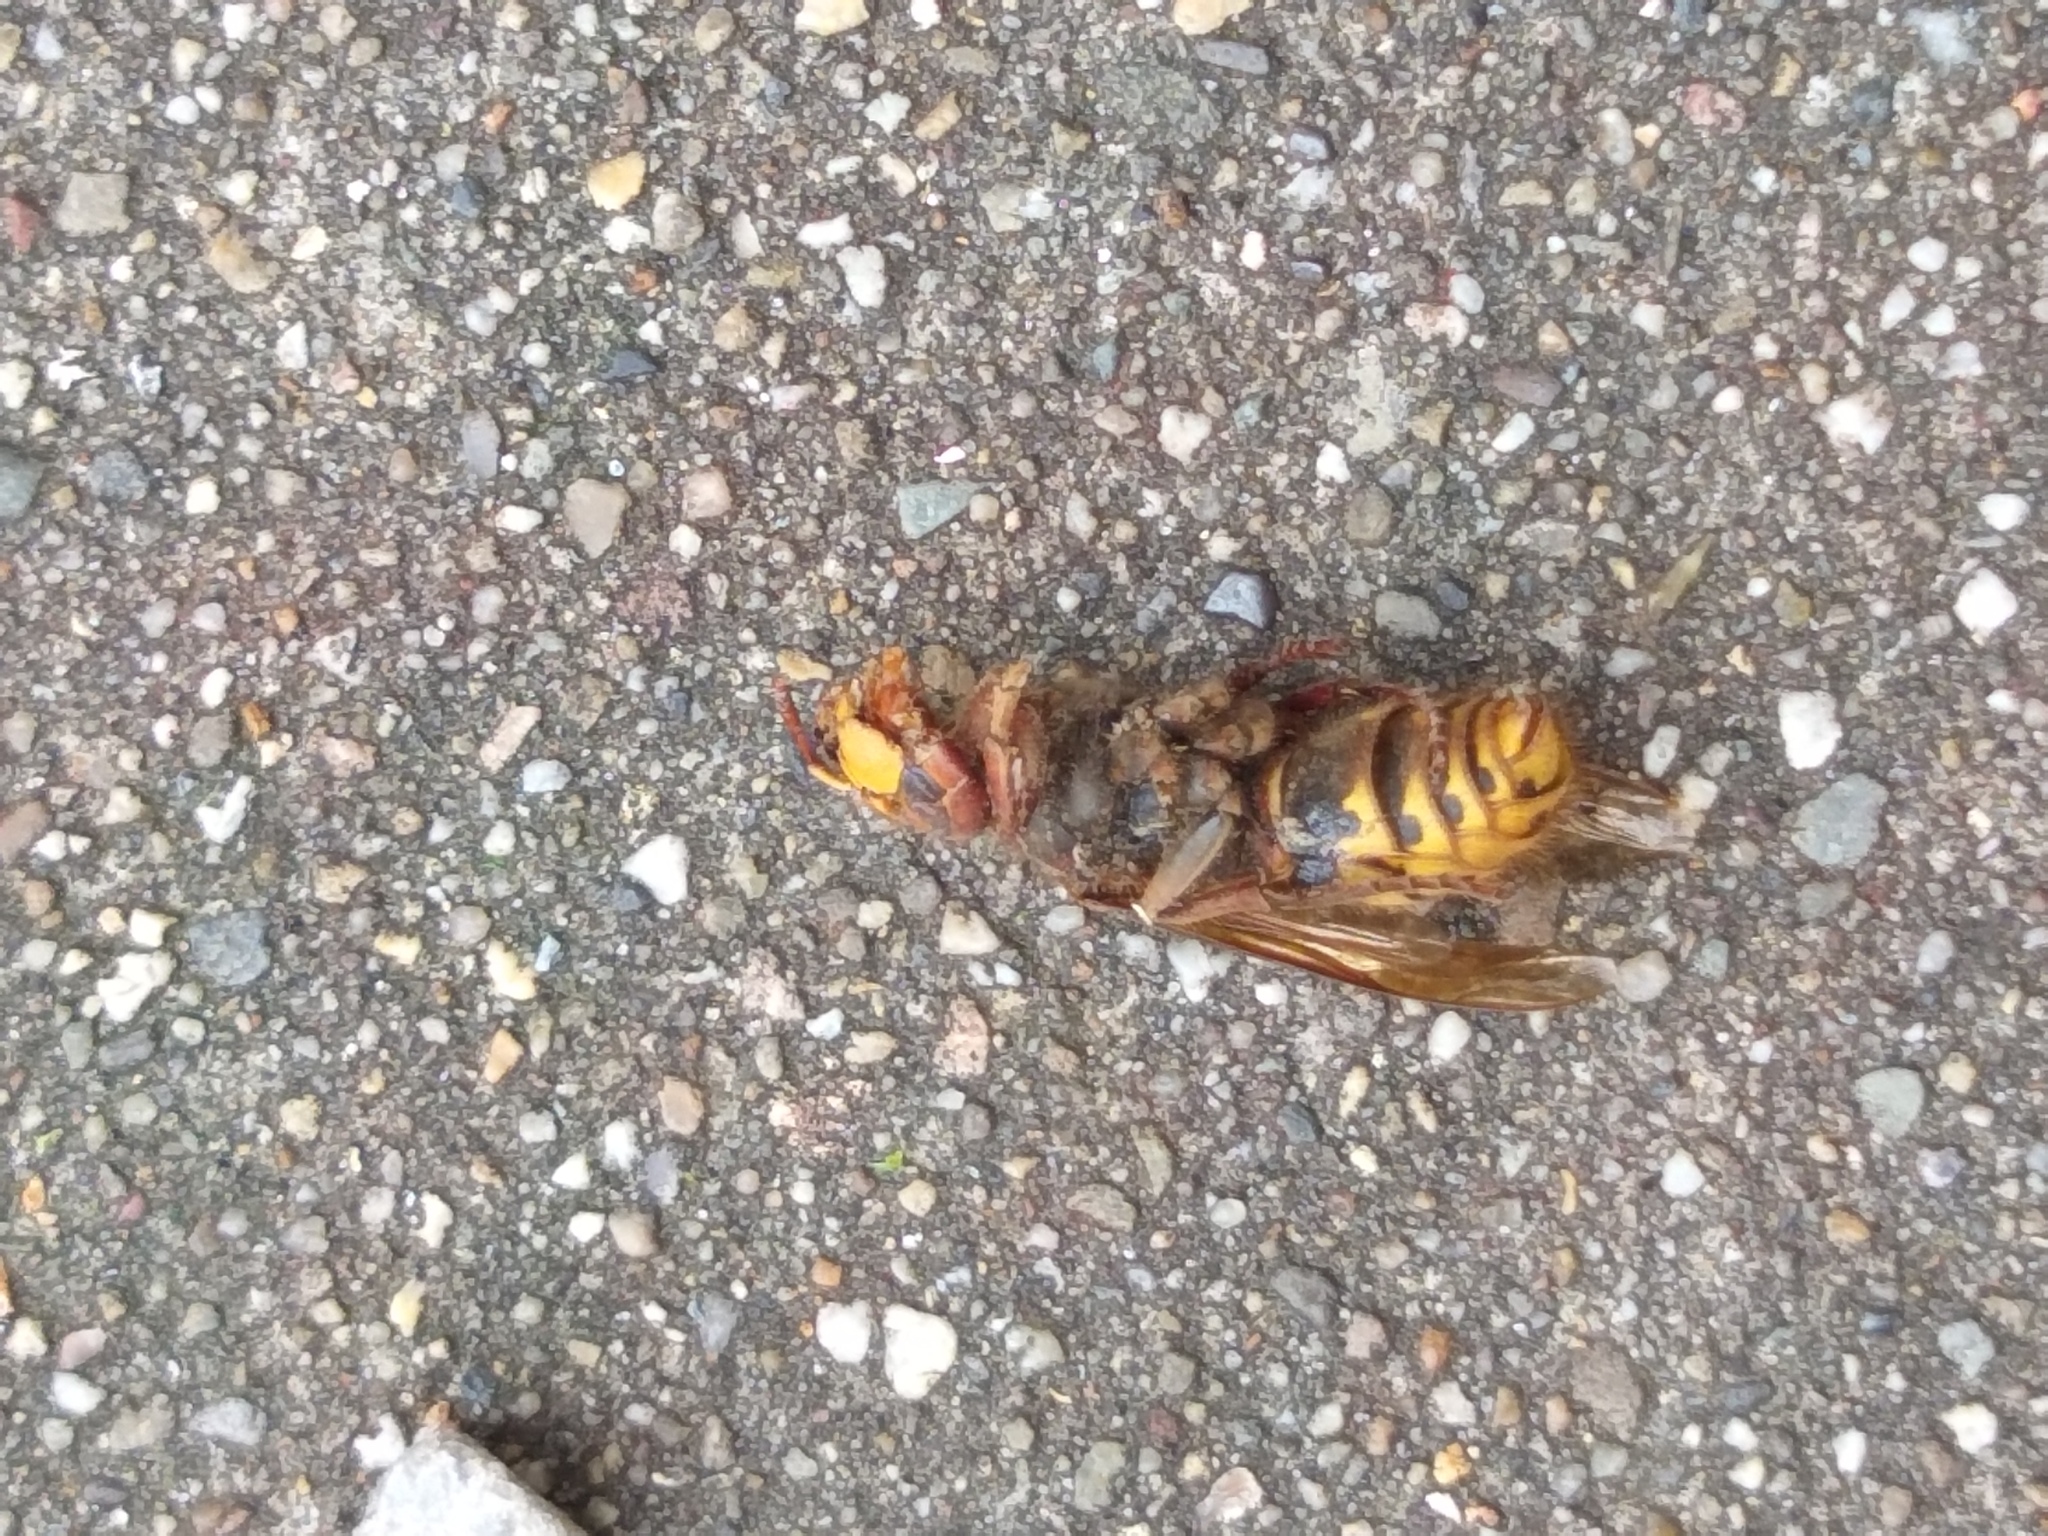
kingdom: Animalia
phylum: Arthropoda
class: Insecta
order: Hymenoptera
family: Vespidae
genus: Vespa
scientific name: Vespa crabro
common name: Hornet
